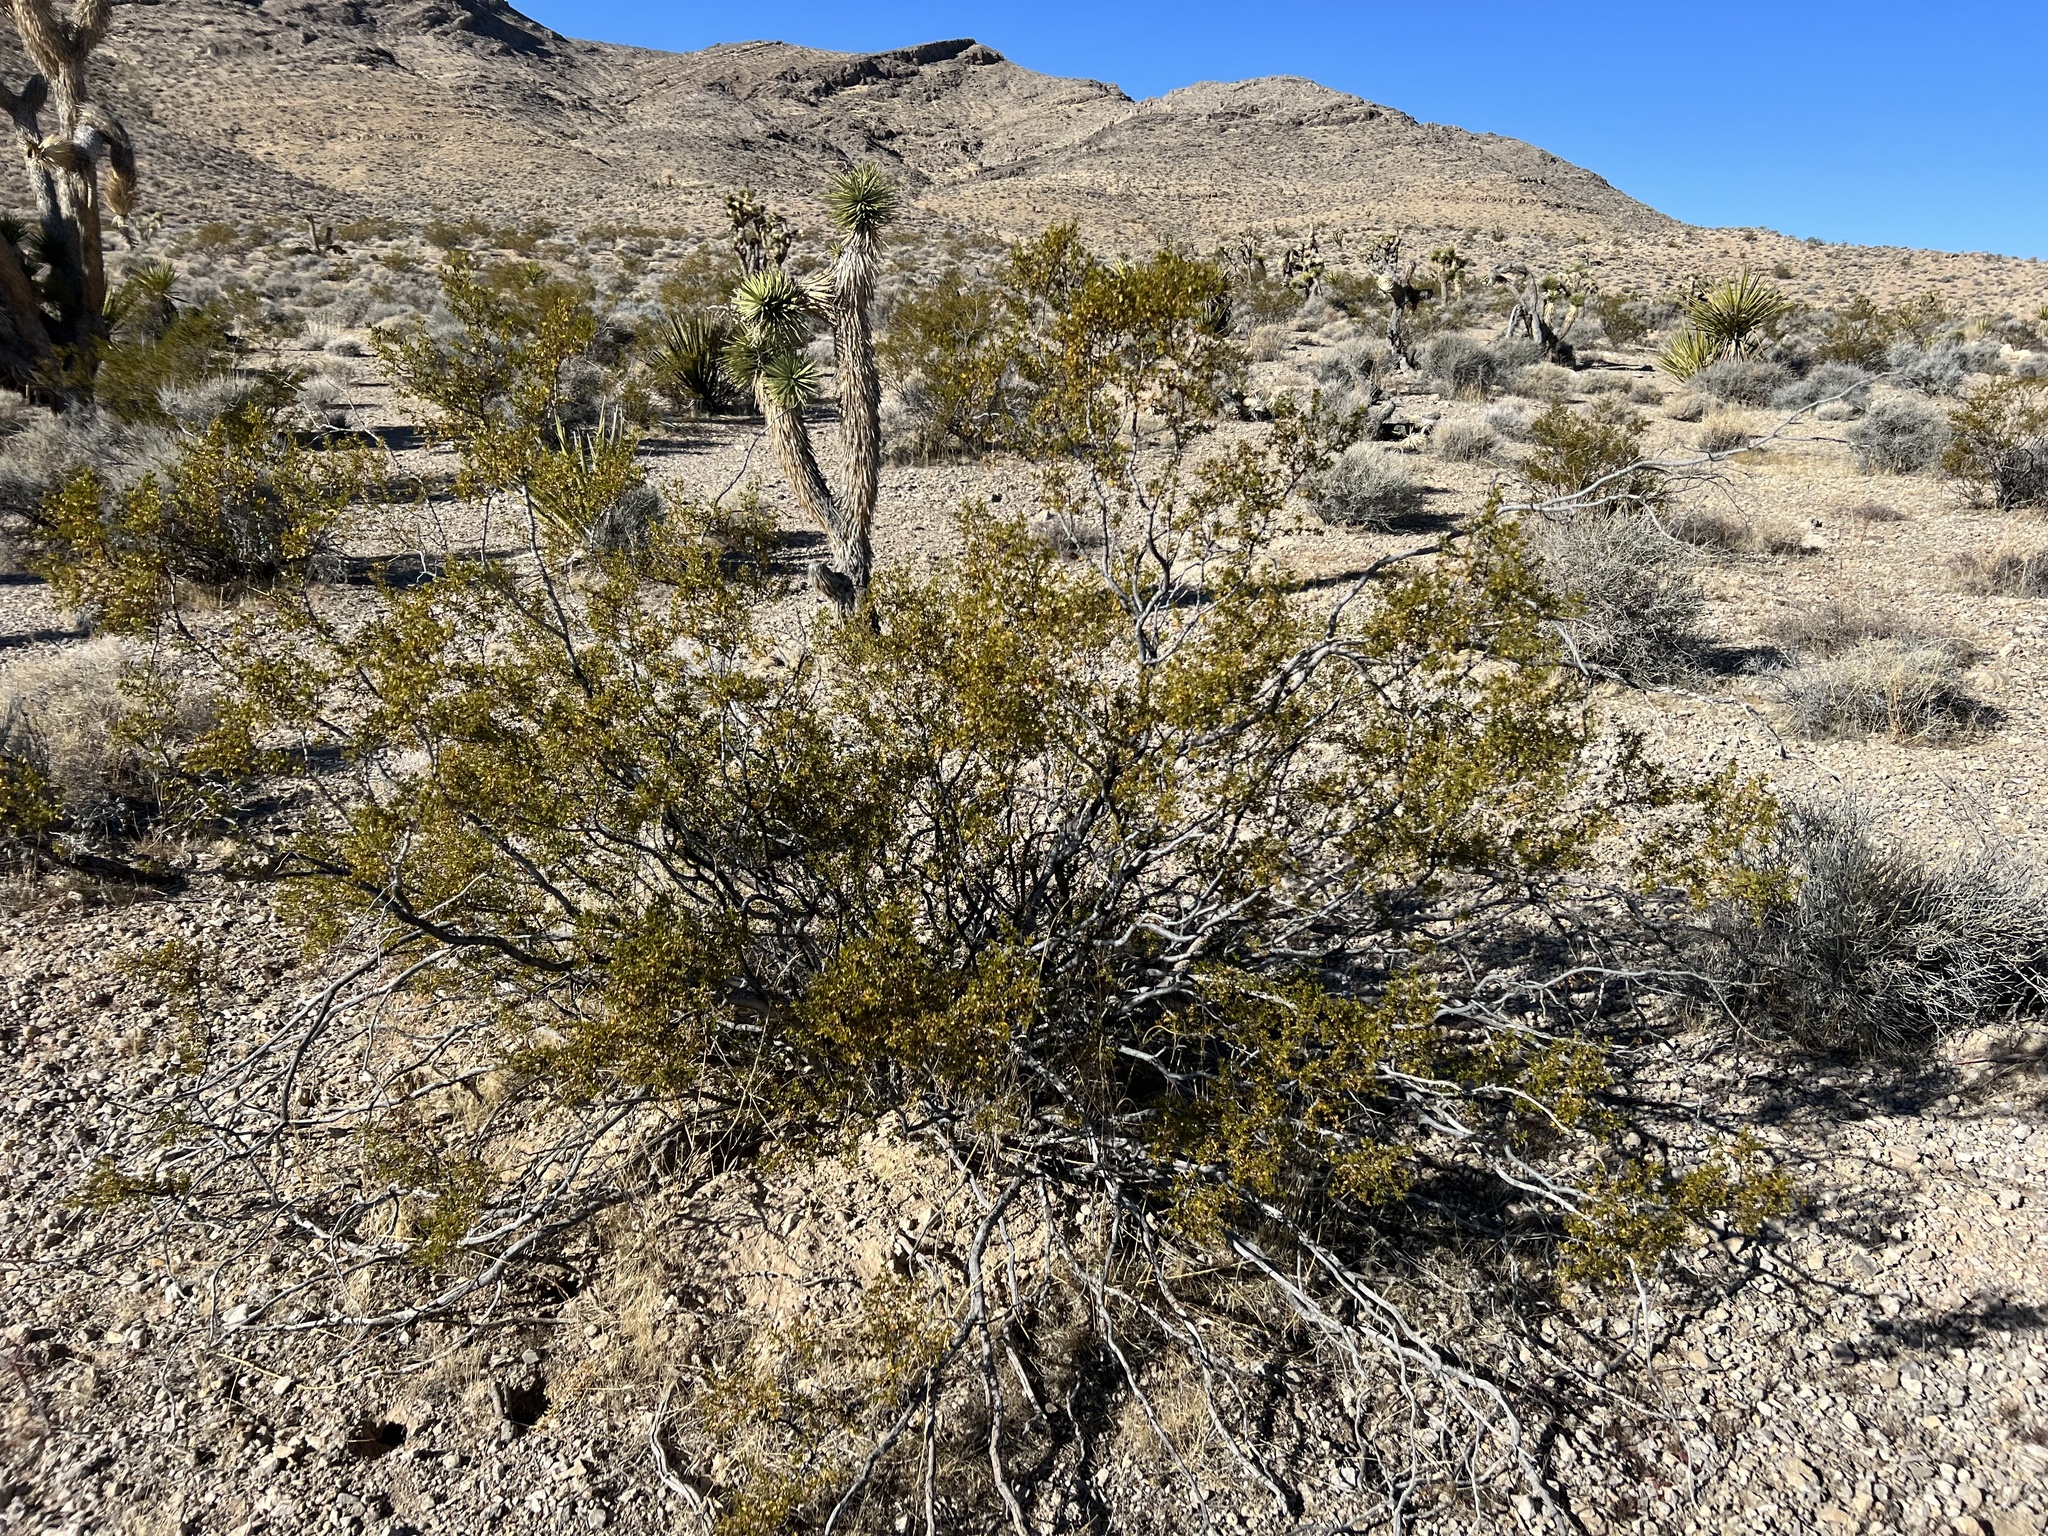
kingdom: Plantae
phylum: Tracheophyta
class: Magnoliopsida
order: Zygophyllales
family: Zygophyllaceae
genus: Larrea
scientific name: Larrea tridentata
